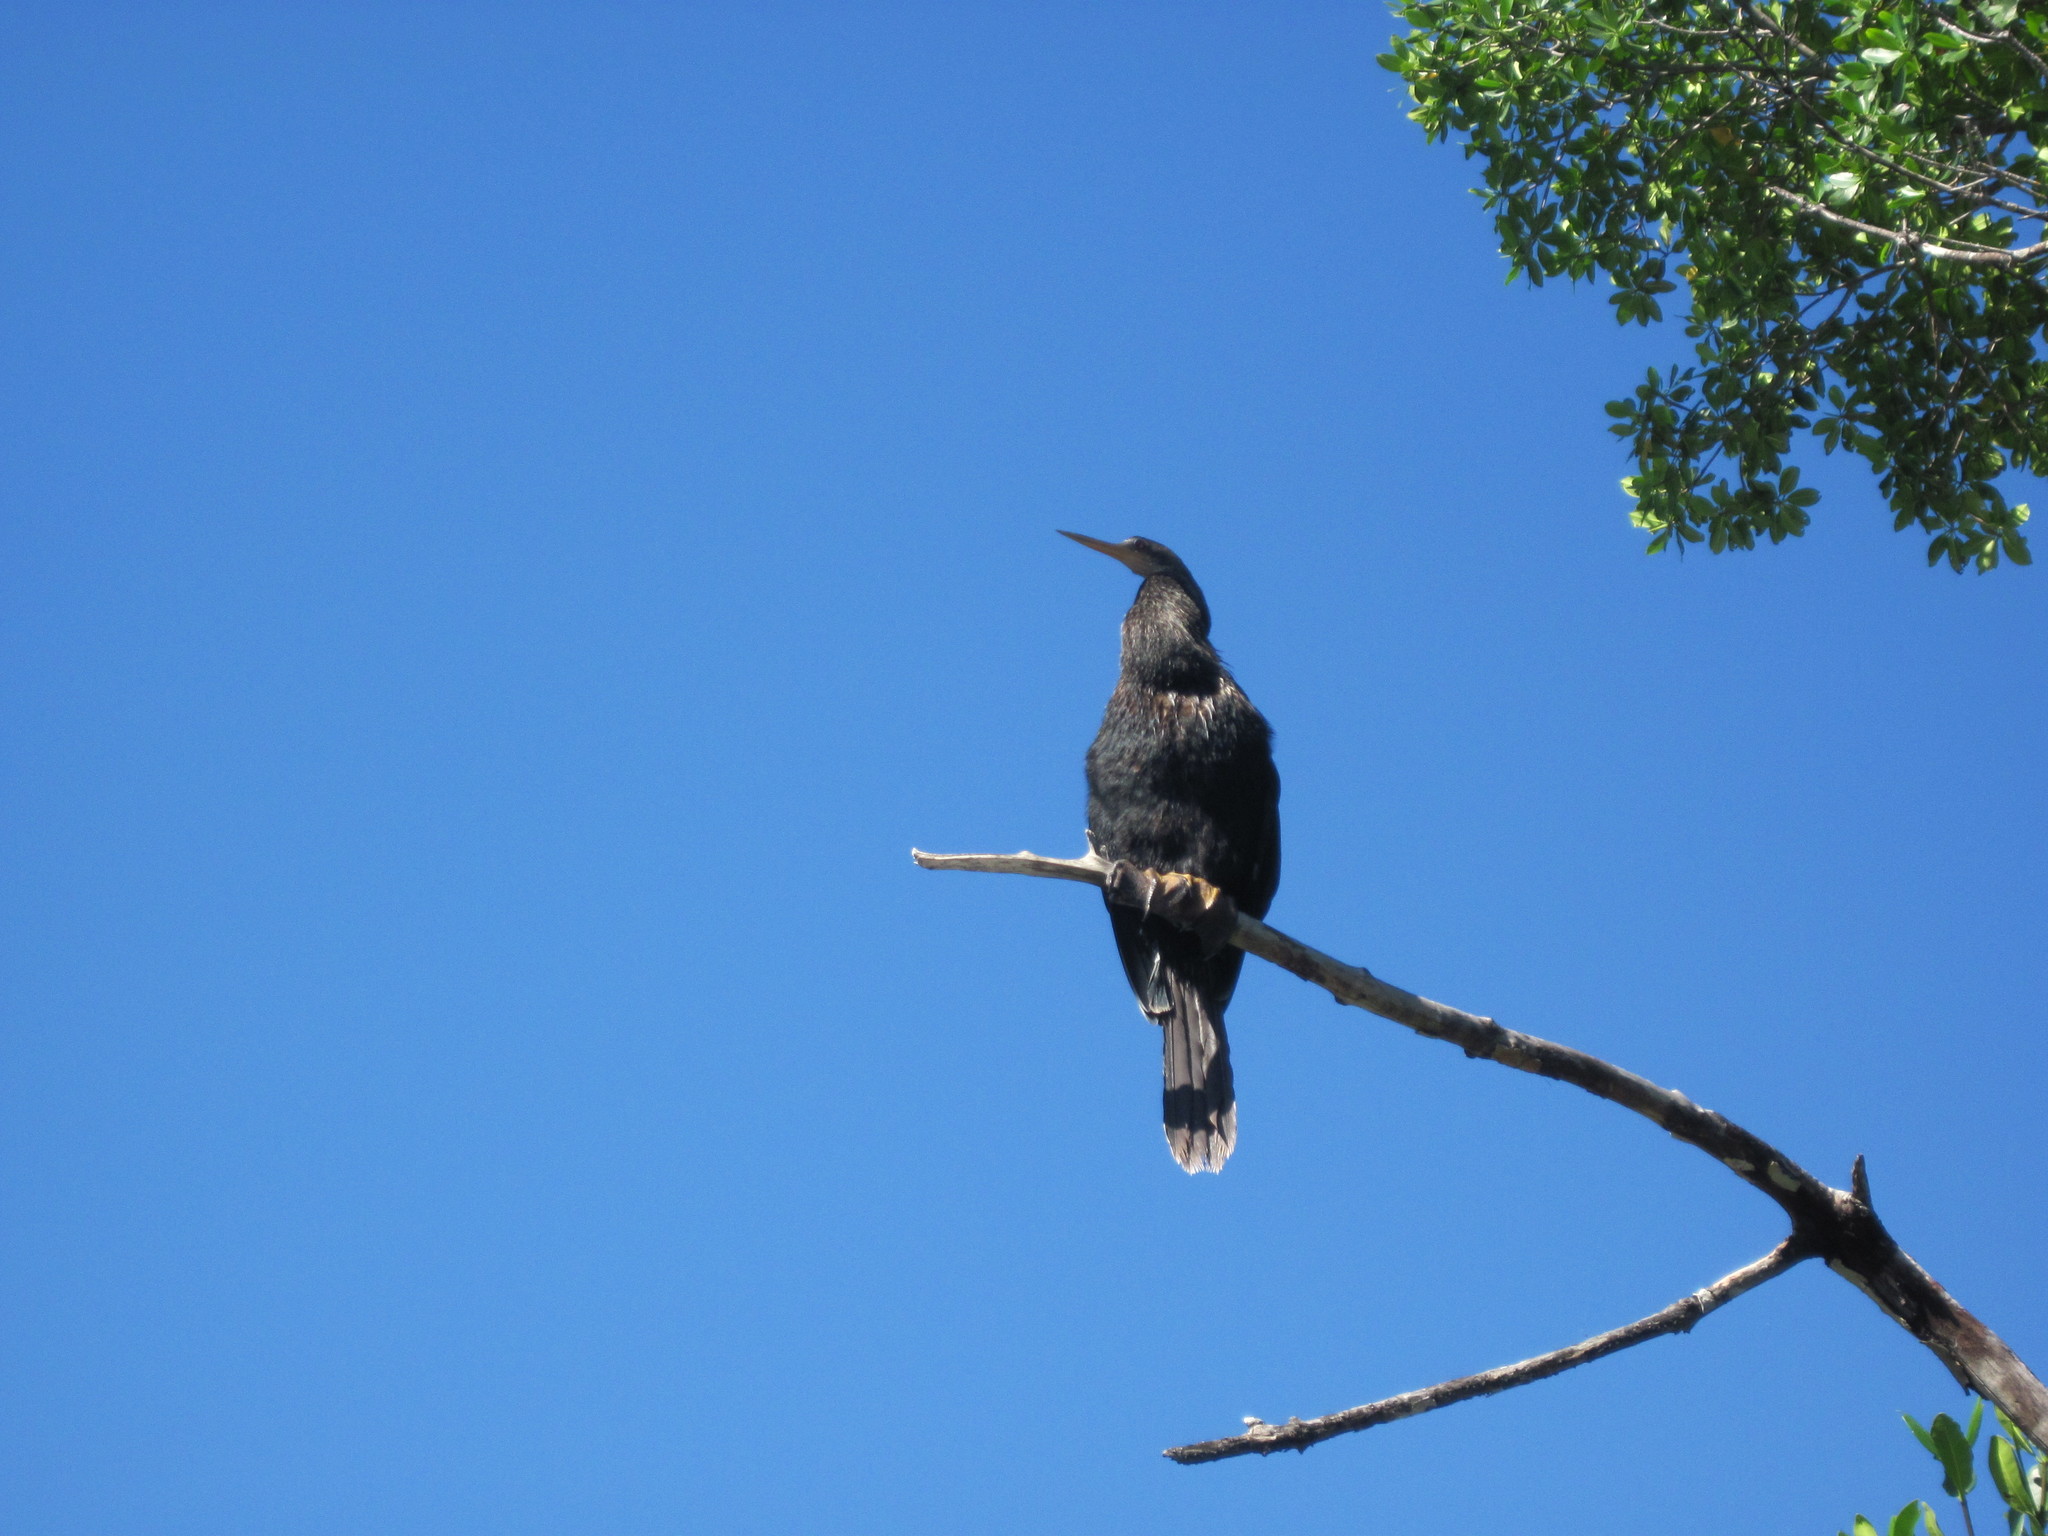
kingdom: Animalia
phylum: Chordata
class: Aves
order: Suliformes
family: Anhingidae
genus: Anhinga
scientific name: Anhinga anhinga
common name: Anhinga
